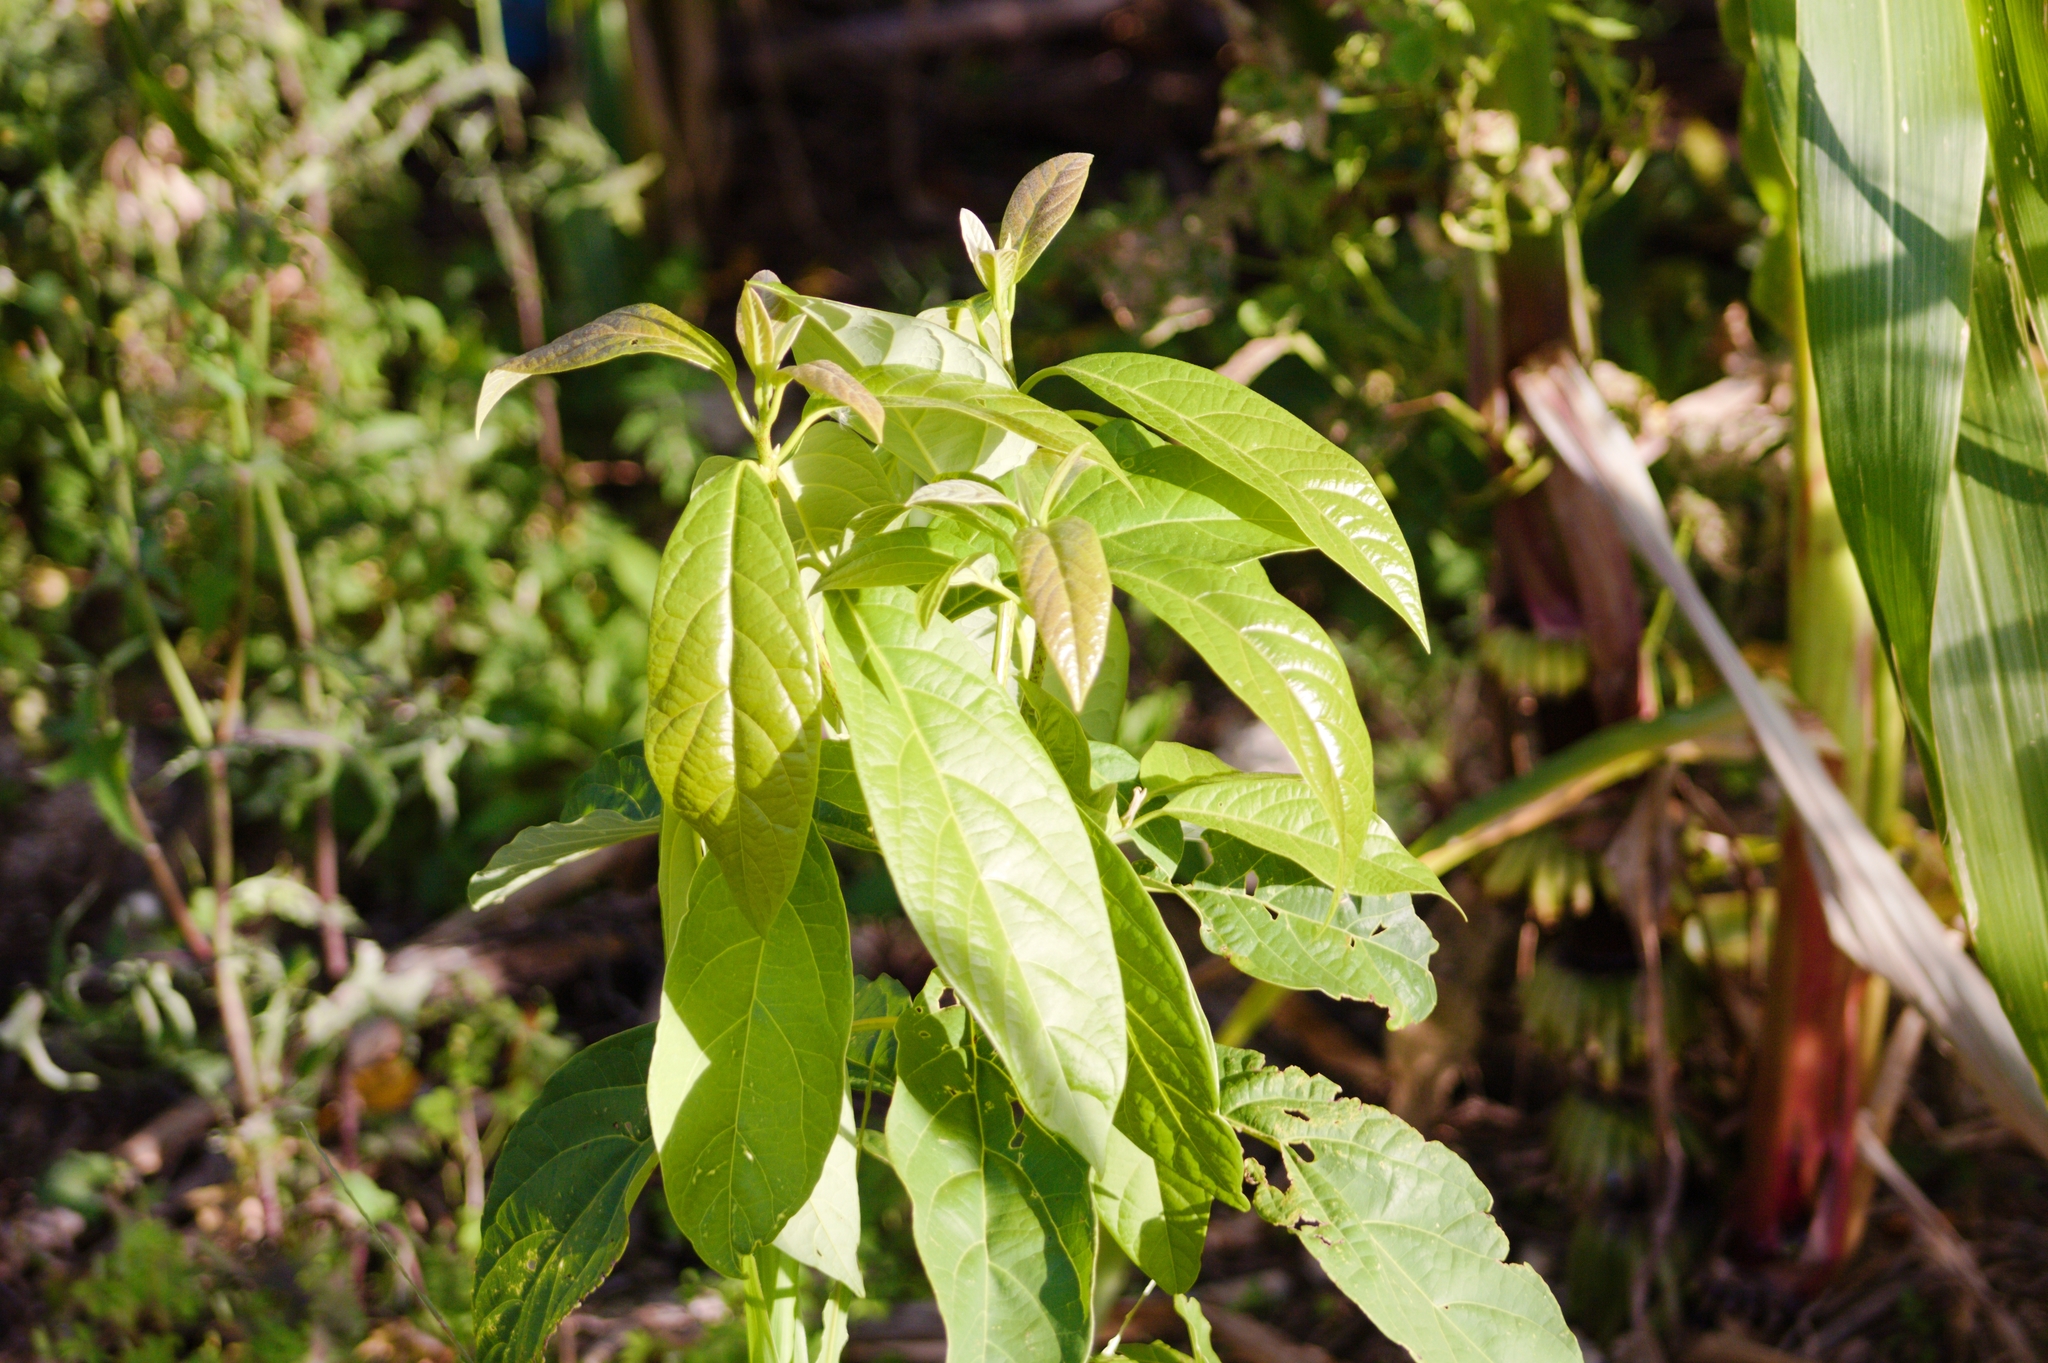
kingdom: Plantae
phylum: Tracheophyta
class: Magnoliopsida
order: Laurales
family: Lauraceae
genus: Persea
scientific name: Persea americana
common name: Avocado
